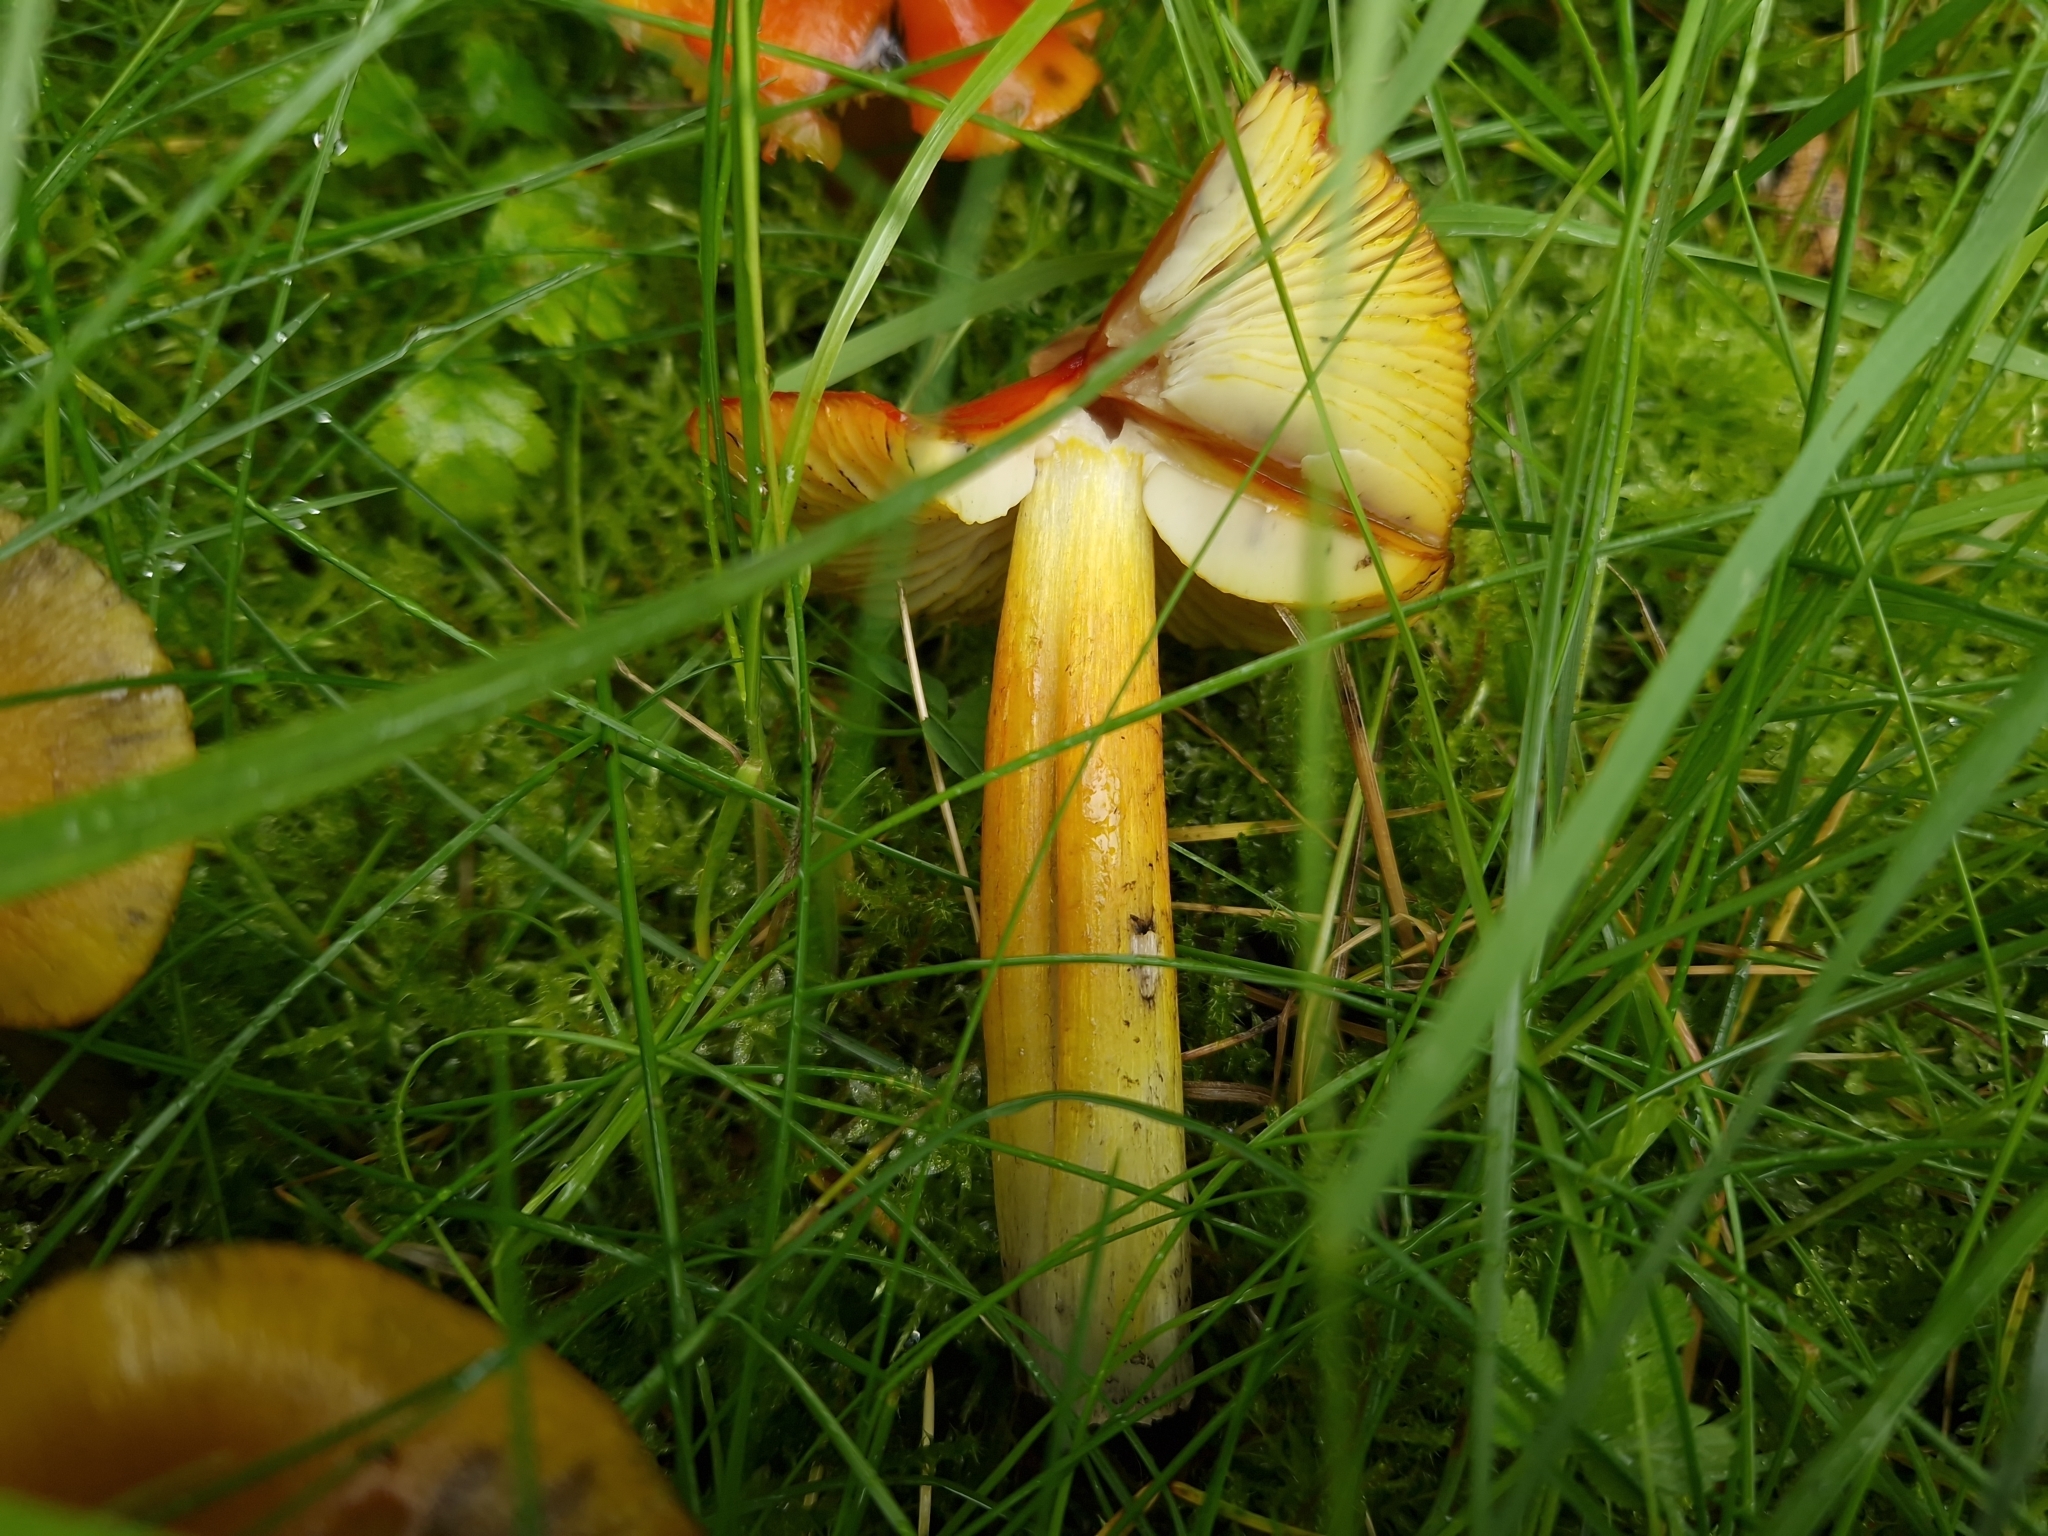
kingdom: Fungi
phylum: Basidiomycota
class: Agaricomycetes
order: Agaricales
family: Hygrophoraceae
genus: Hygrocybe
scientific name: Hygrocybe conica
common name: Blackening wax-cap
